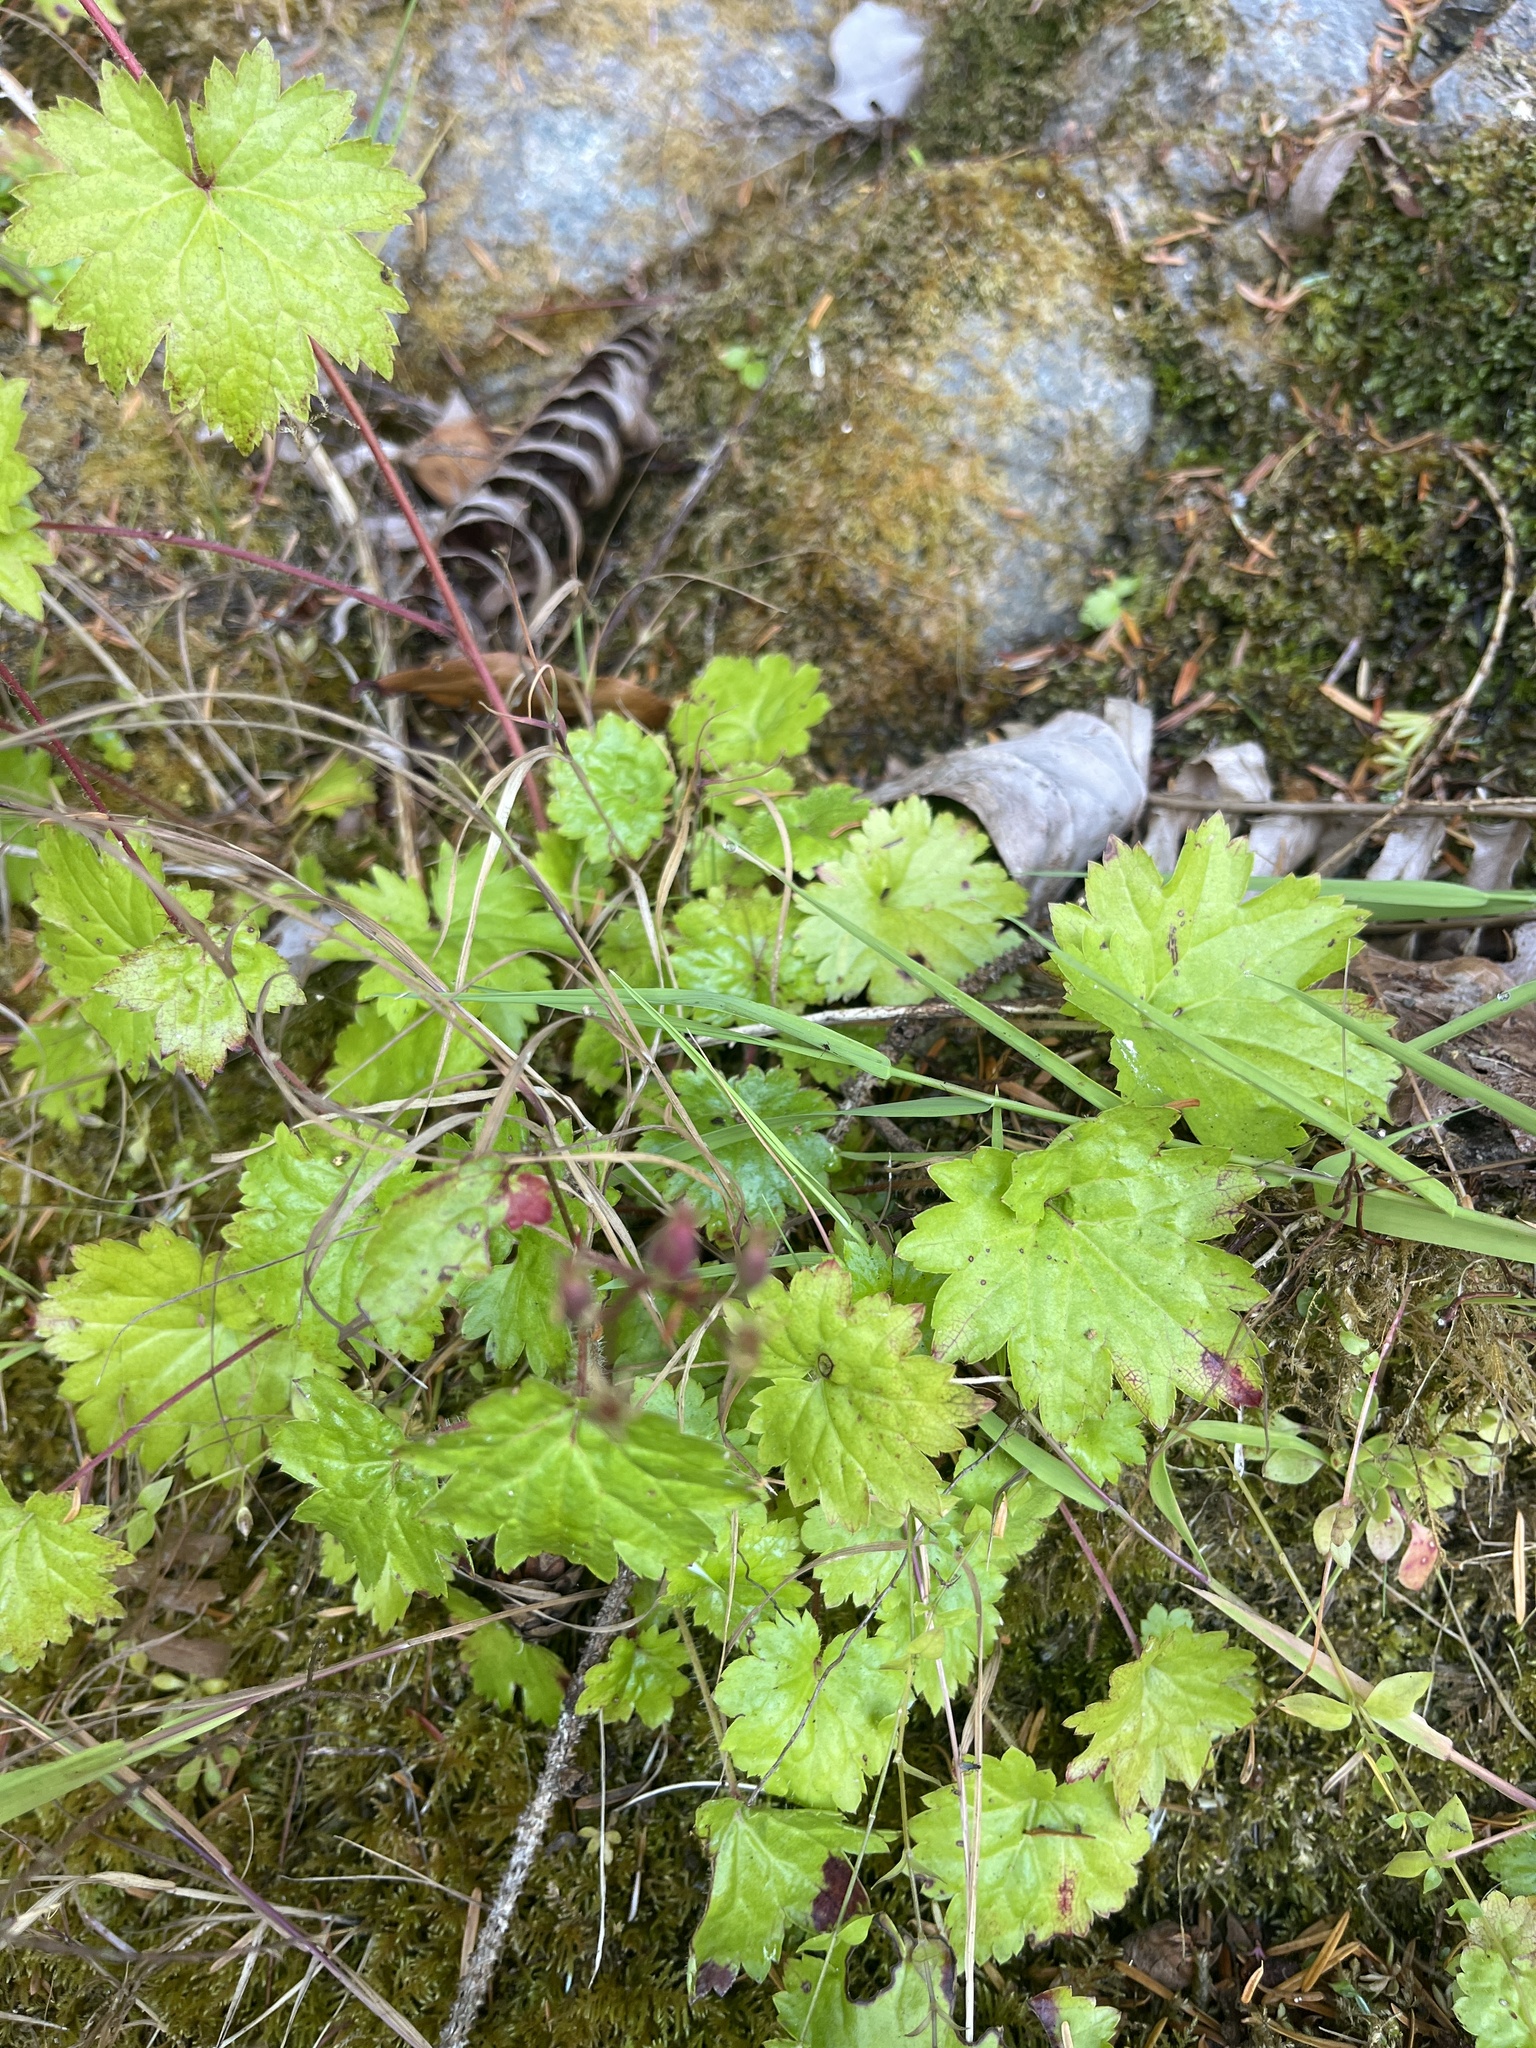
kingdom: Plantae
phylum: Tracheophyta
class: Magnoliopsida
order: Saxifragales
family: Saxifragaceae
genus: Boykinia
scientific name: Boykinia occidentalis
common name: Coast boykinia
